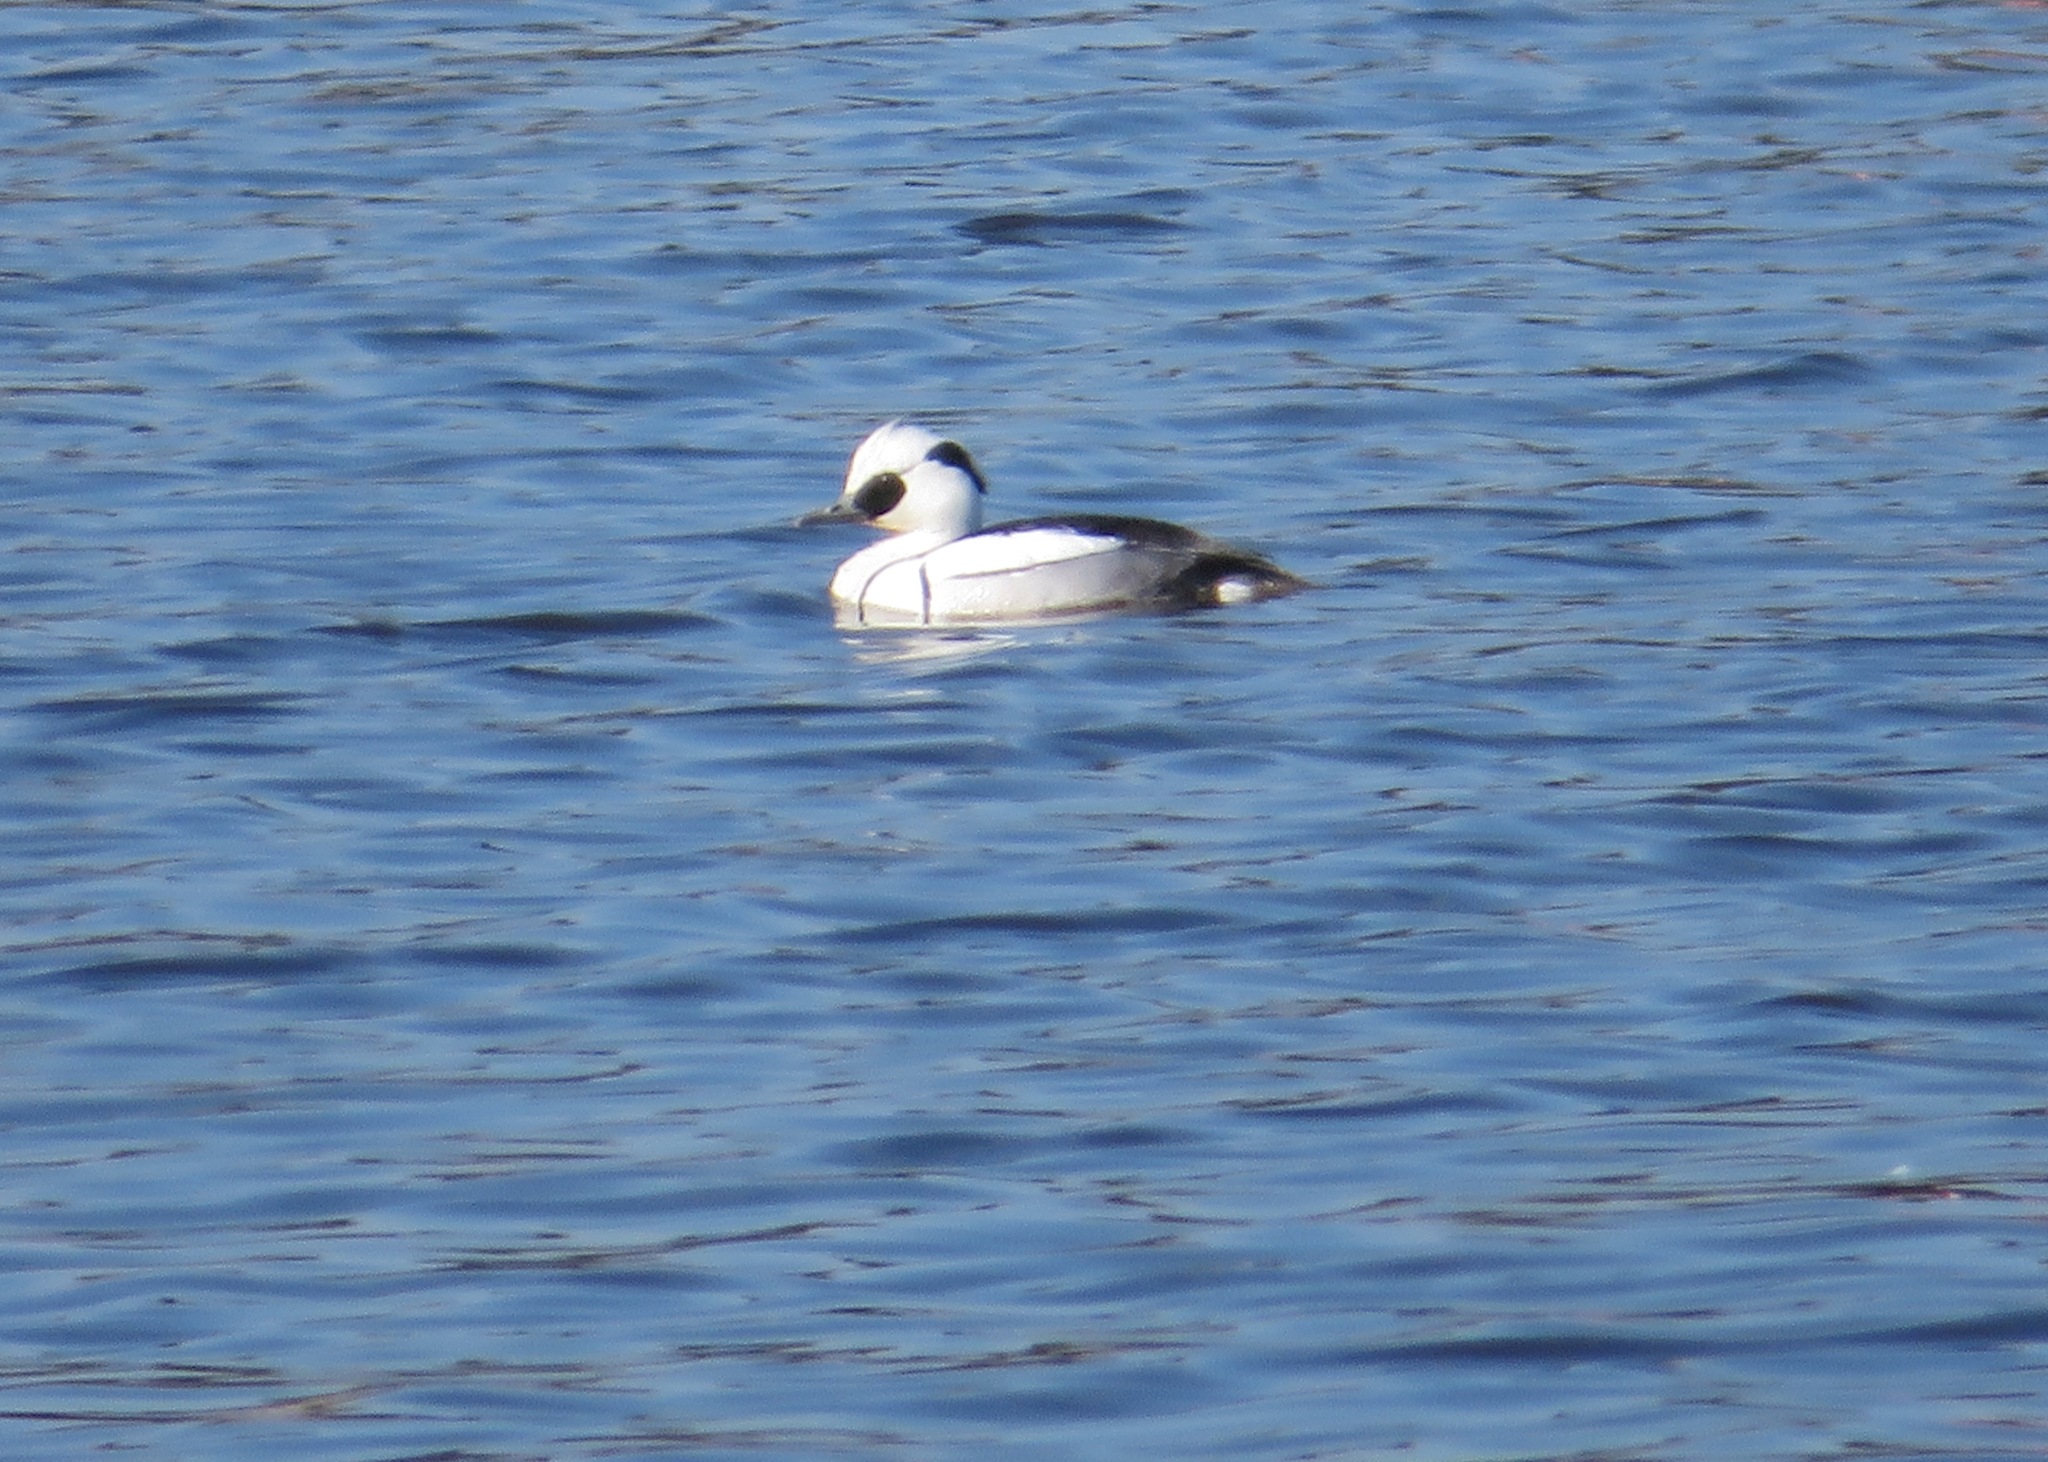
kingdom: Animalia
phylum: Chordata
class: Aves
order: Anseriformes
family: Anatidae
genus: Mergellus
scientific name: Mergellus albellus
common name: Smew
